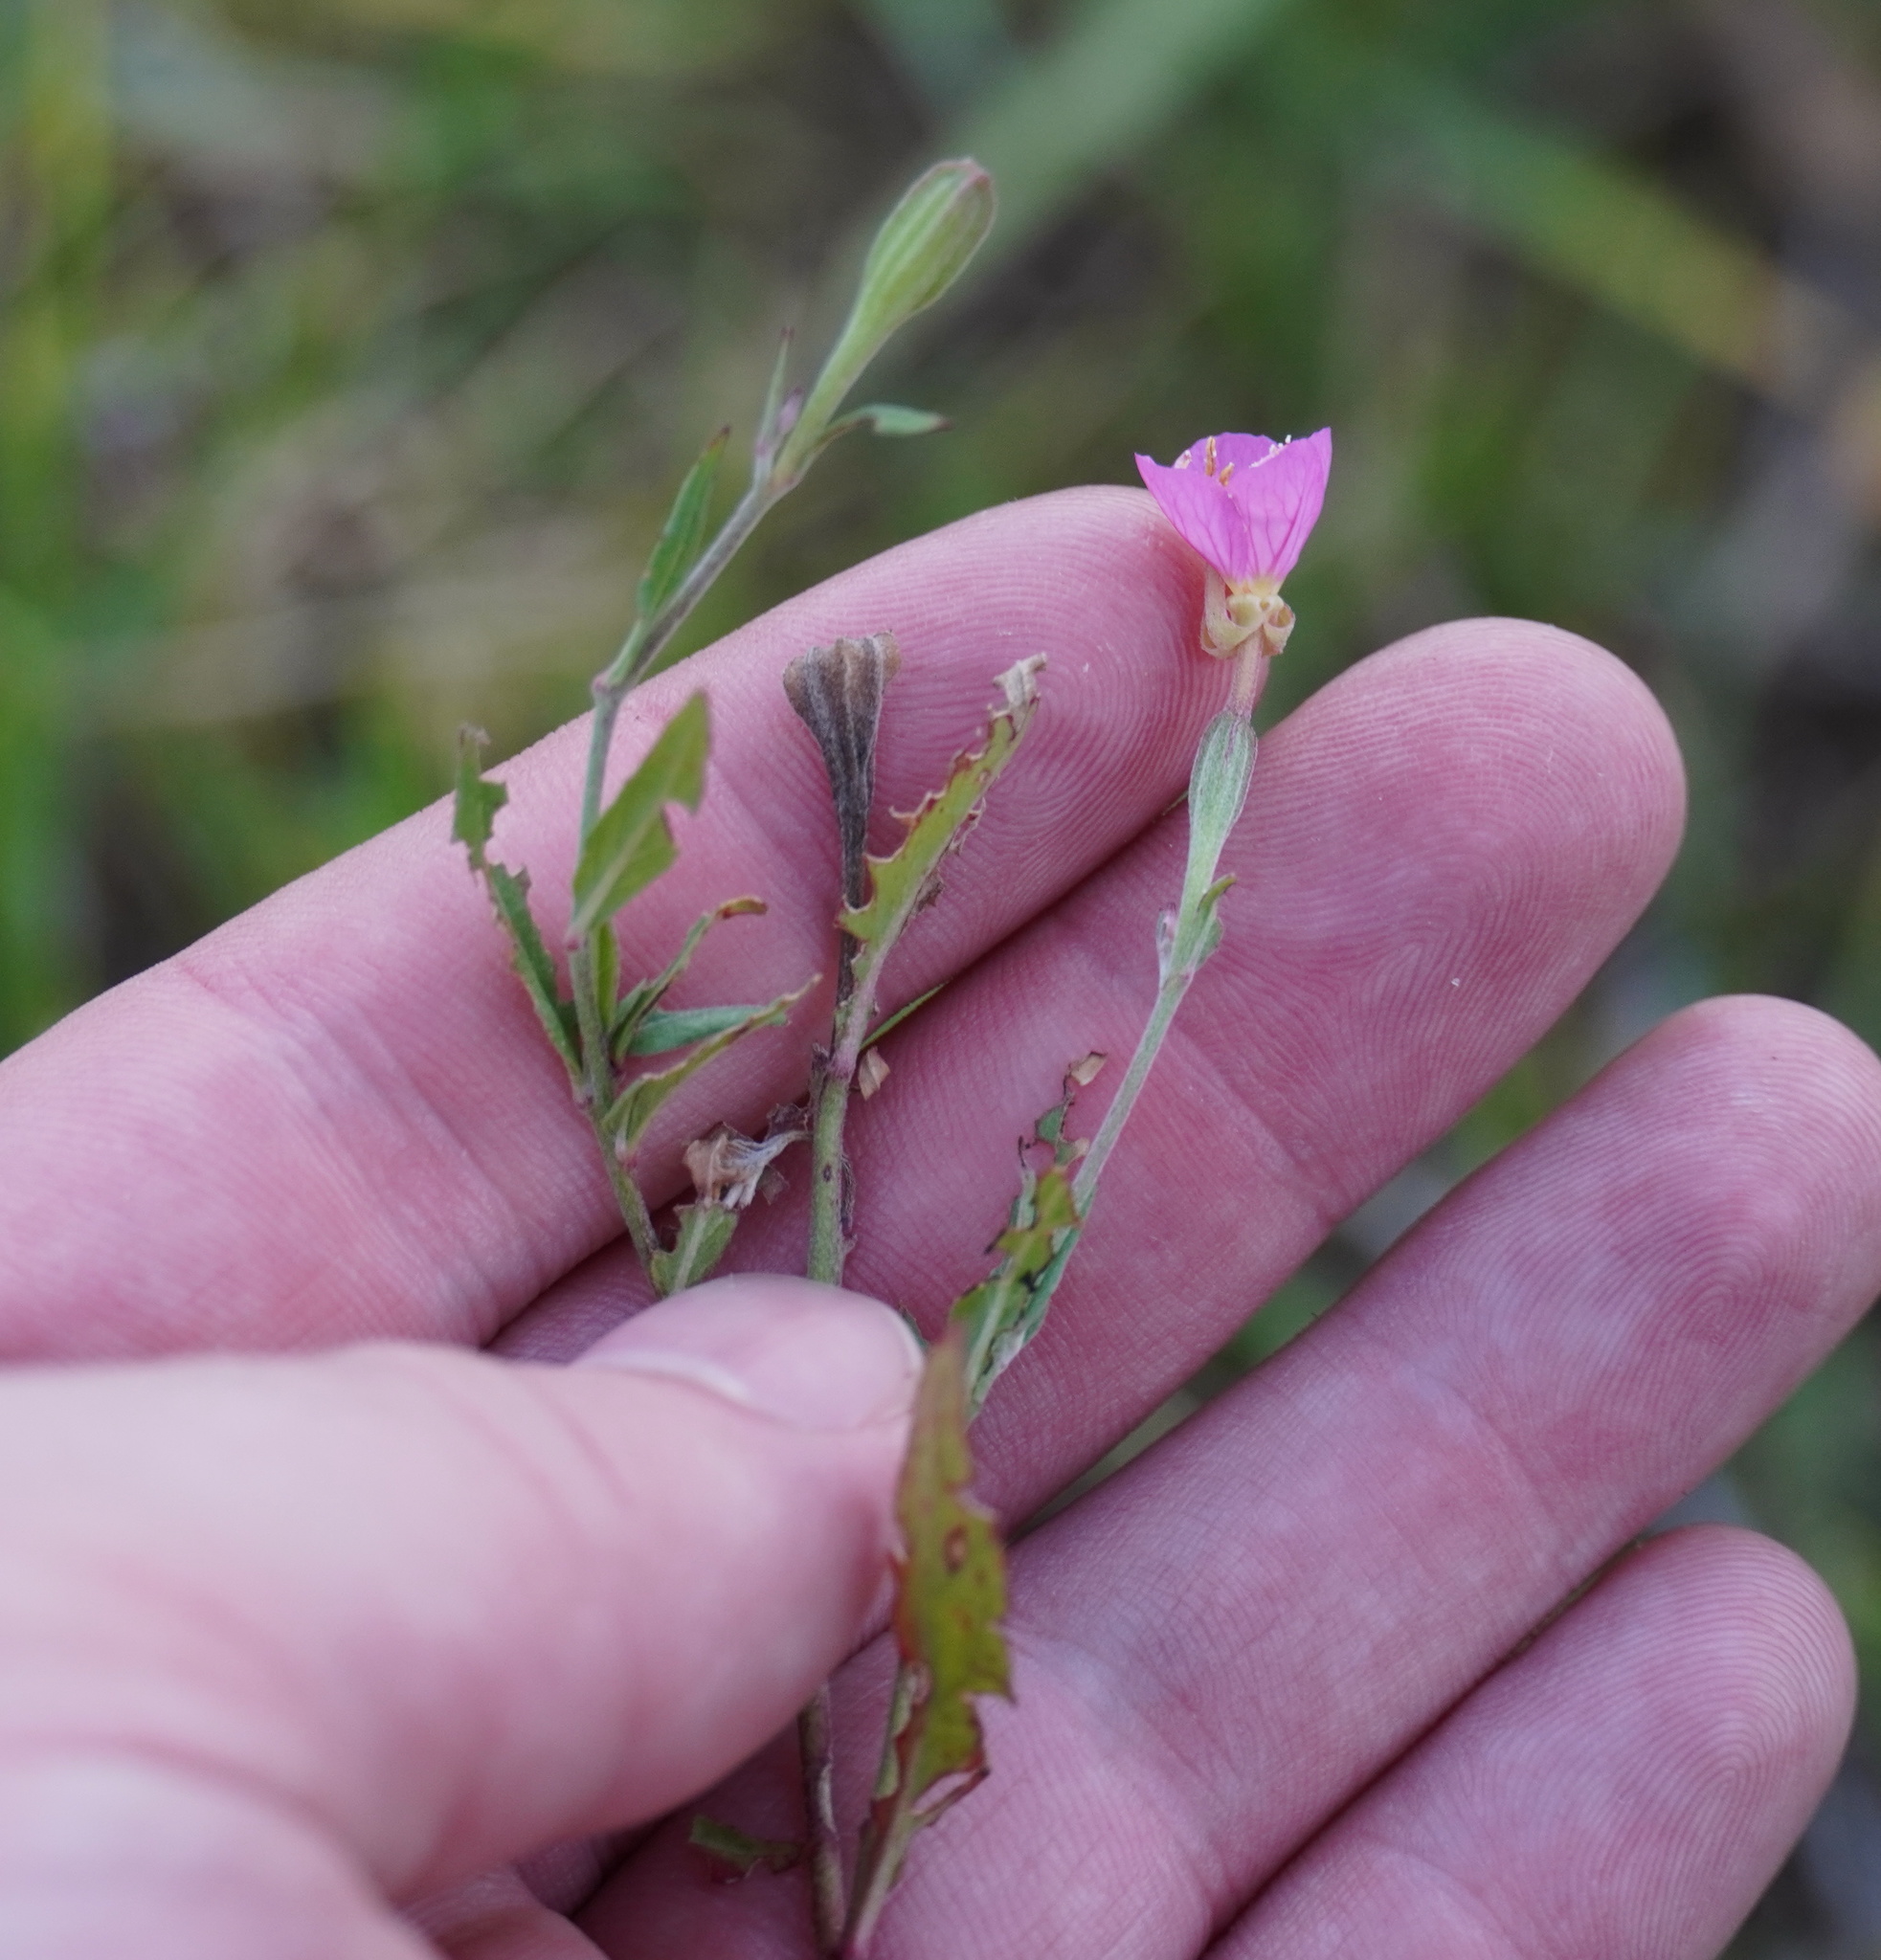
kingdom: Plantae
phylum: Tracheophyta
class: Magnoliopsida
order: Myrtales
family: Onagraceae
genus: Oenothera
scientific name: Oenothera rosea
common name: Rosy evening-primrose
